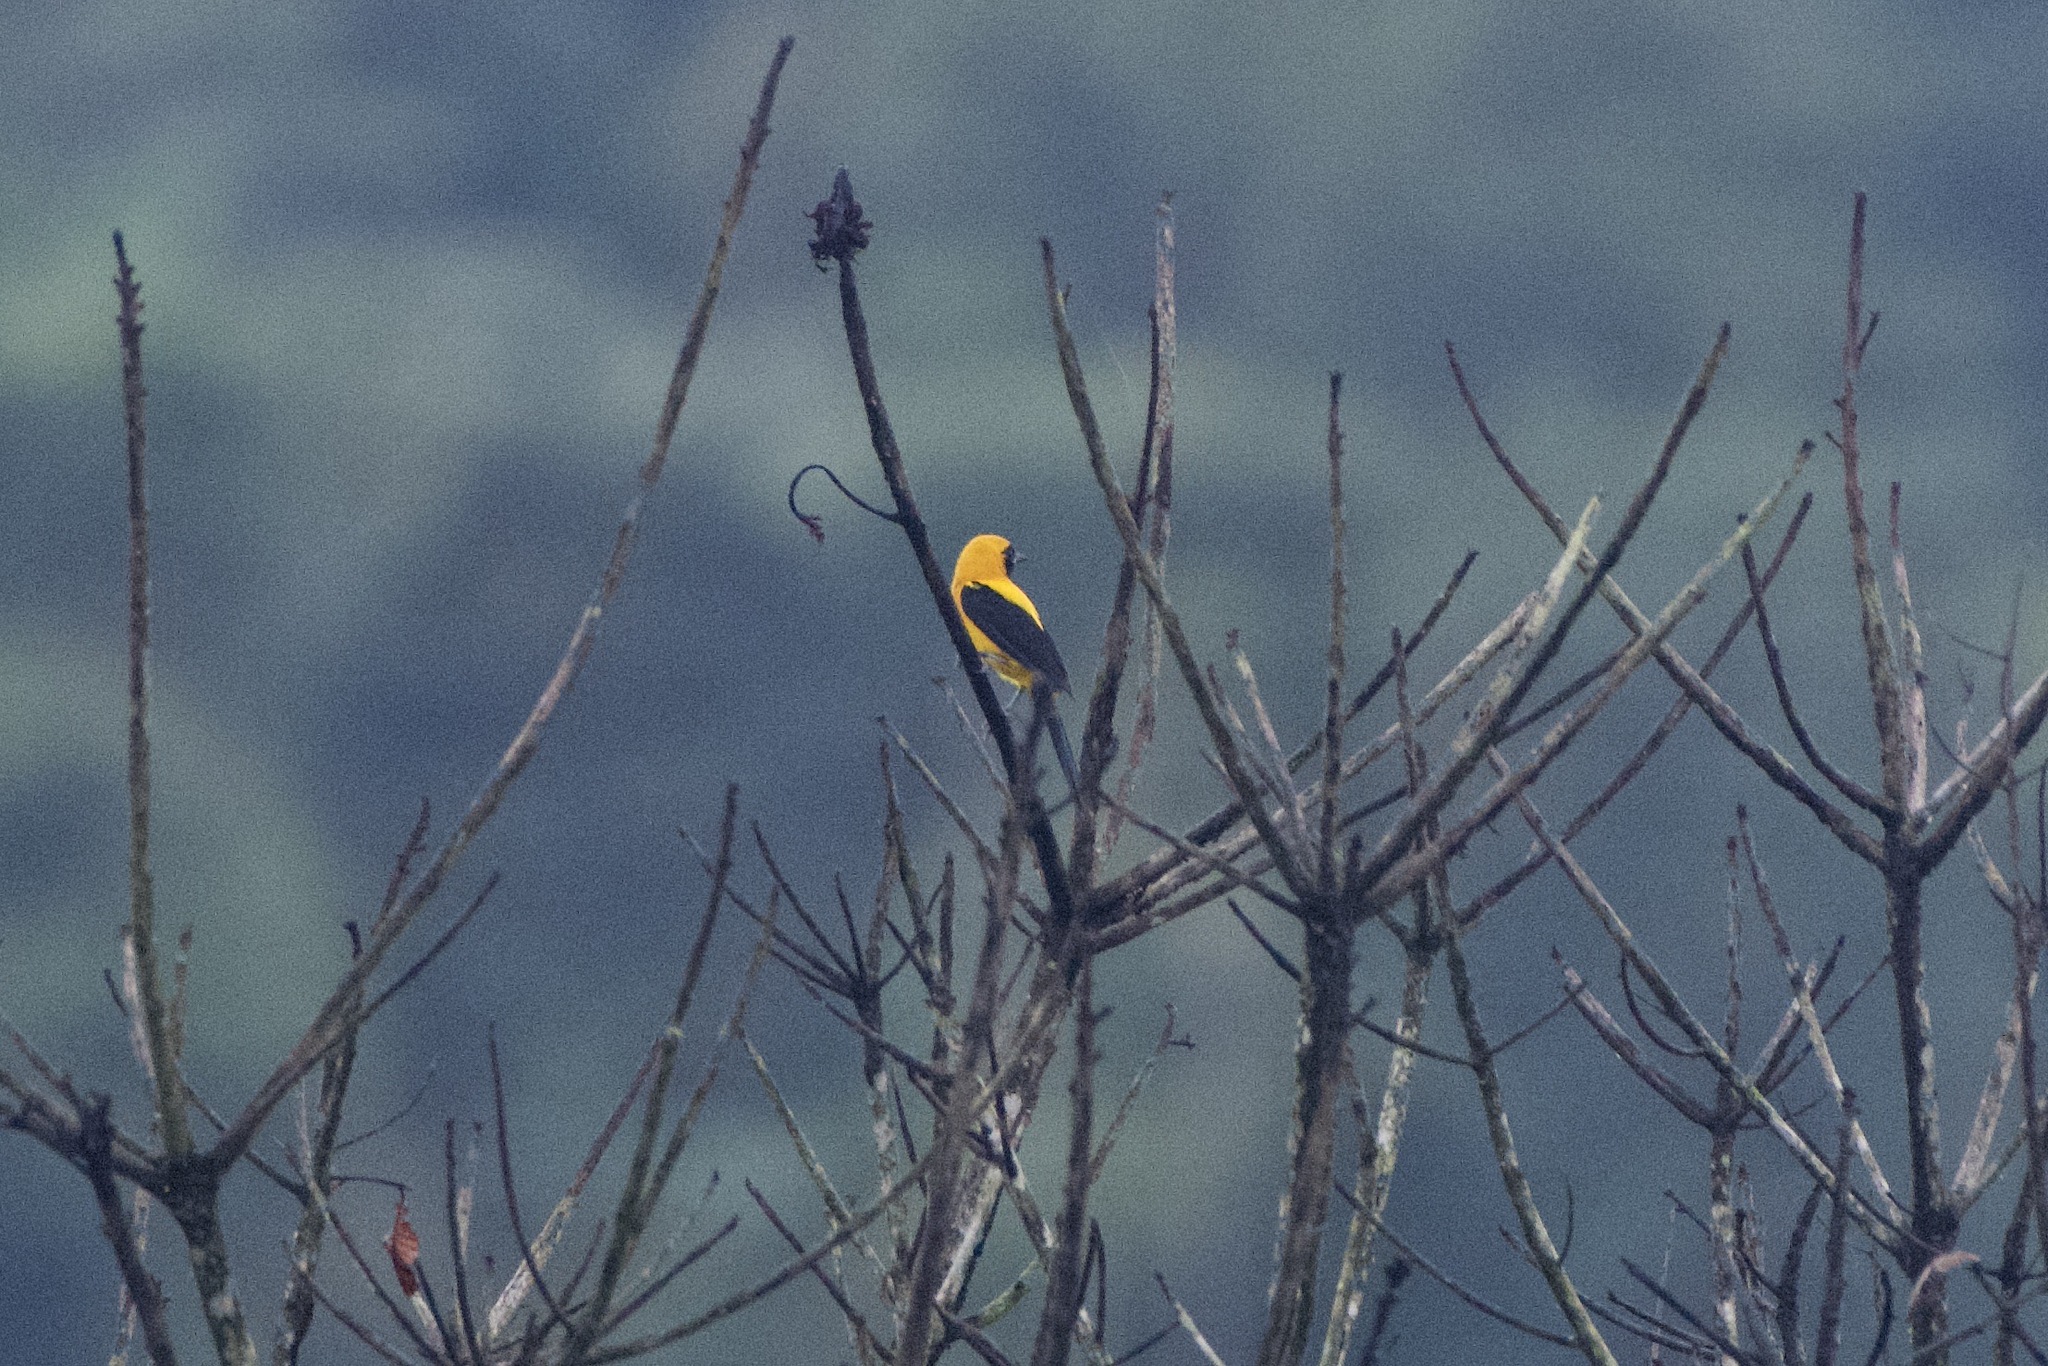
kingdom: Animalia
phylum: Chordata
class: Aves
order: Passeriformes
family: Icteridae
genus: Icterus
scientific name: Icterus chrysater
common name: Yellow-backed oriole
